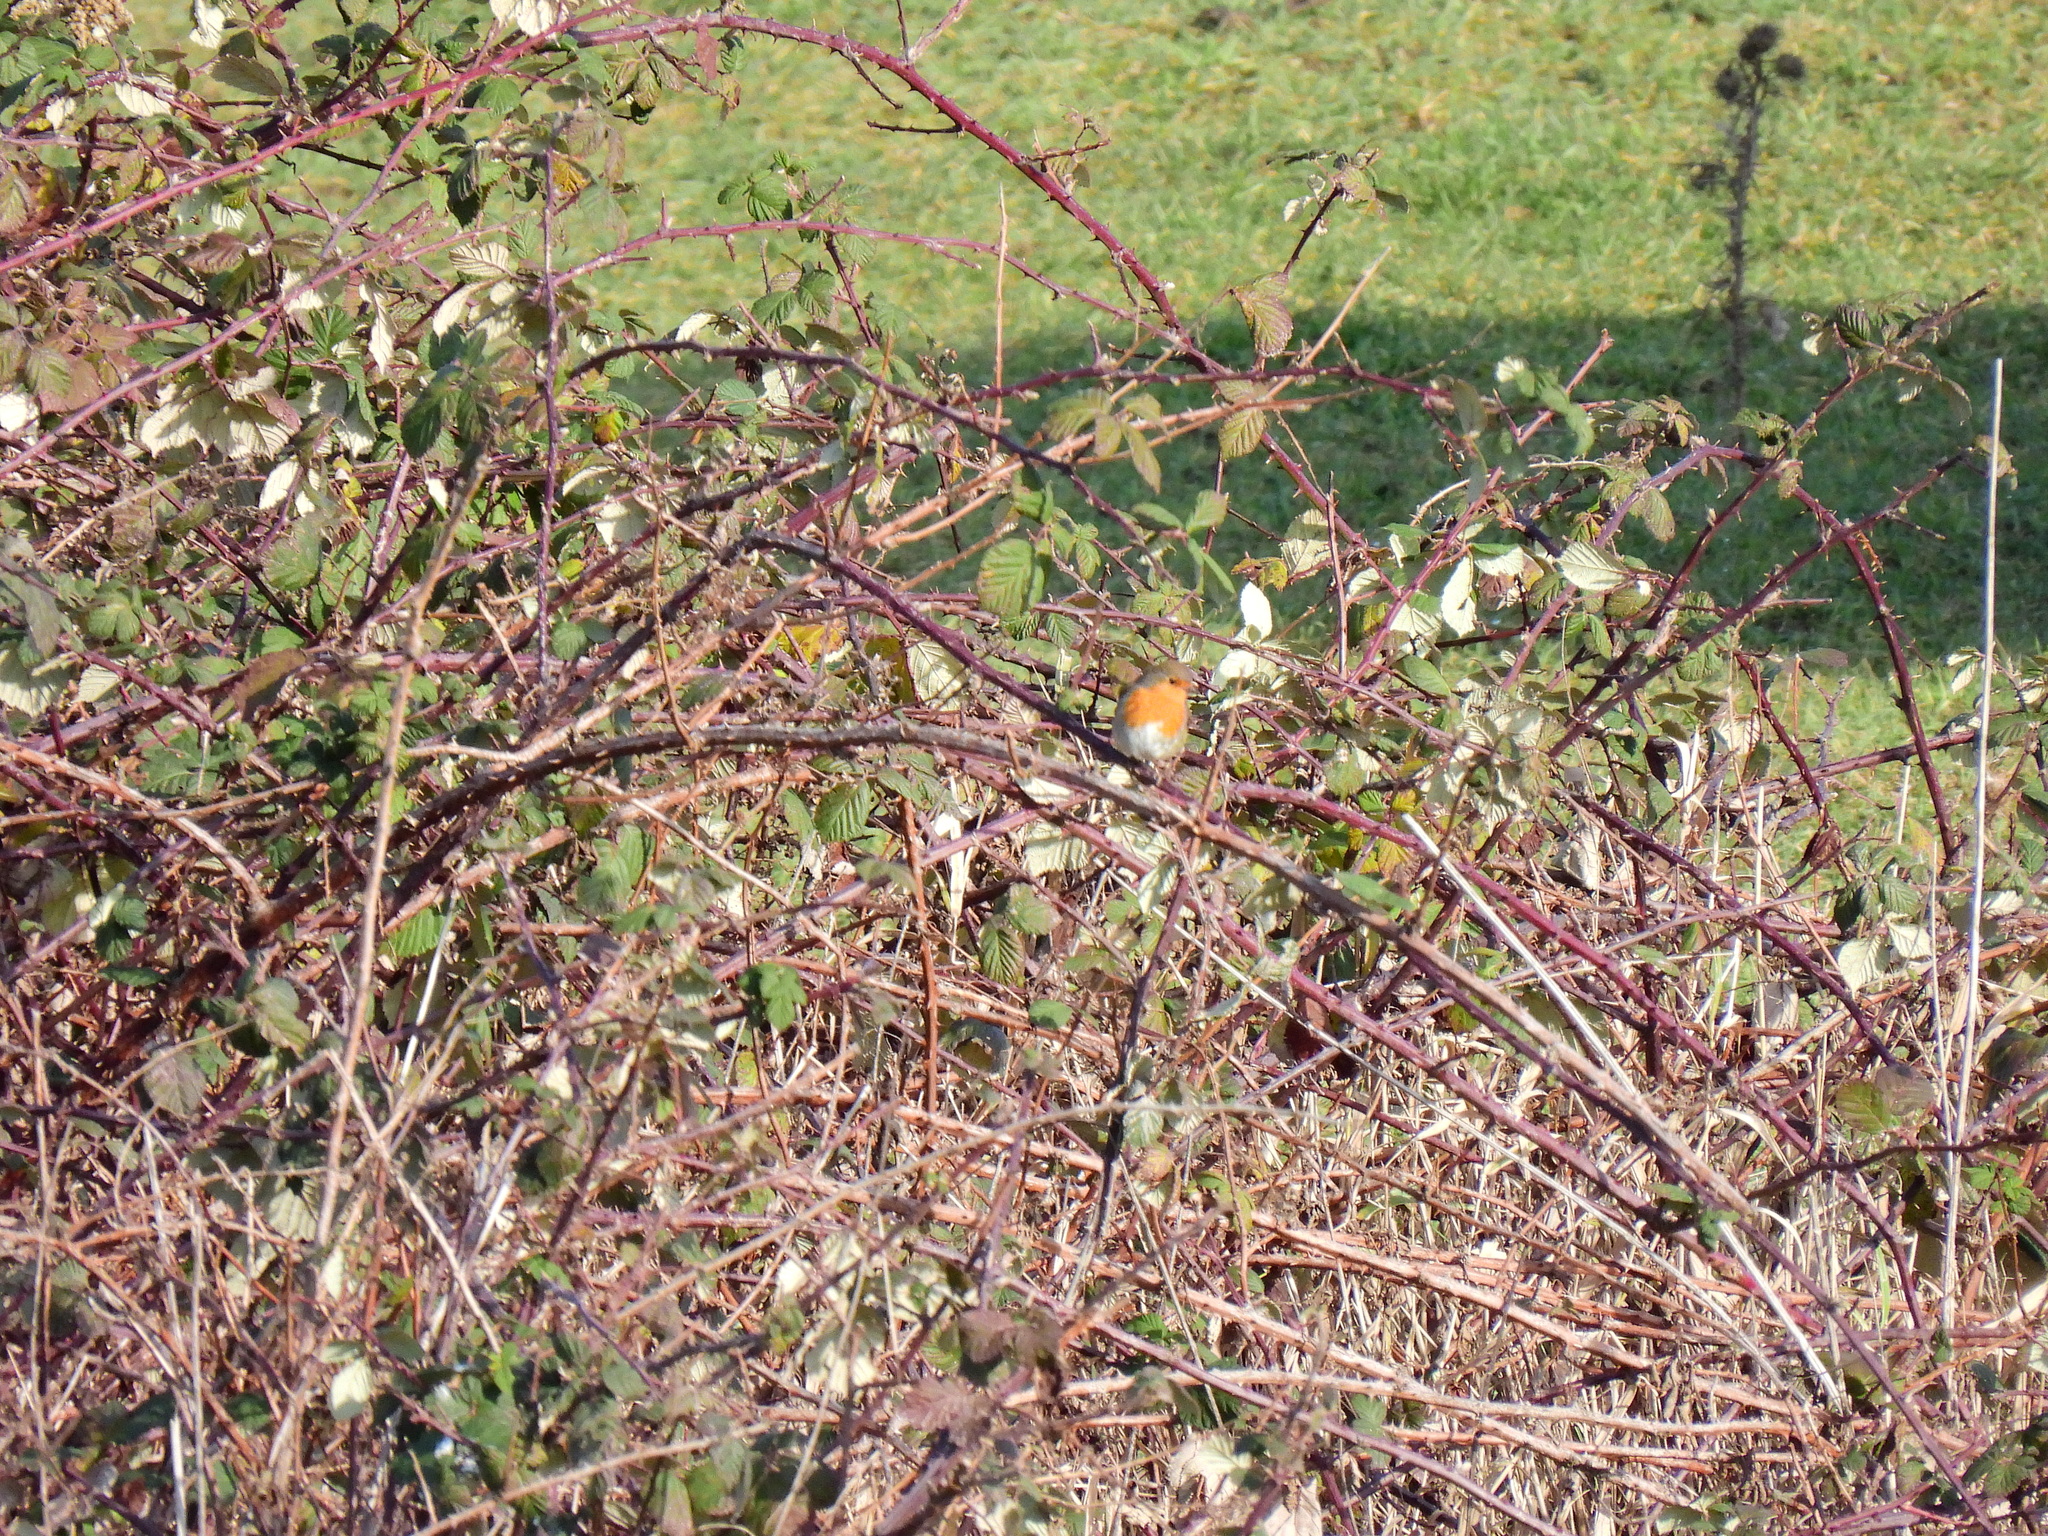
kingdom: Animalia
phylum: Chordata
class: Aves
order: Passeriformes
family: Muscicapidae
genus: Erithacus
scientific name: Erithacus rubecula
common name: European robin
